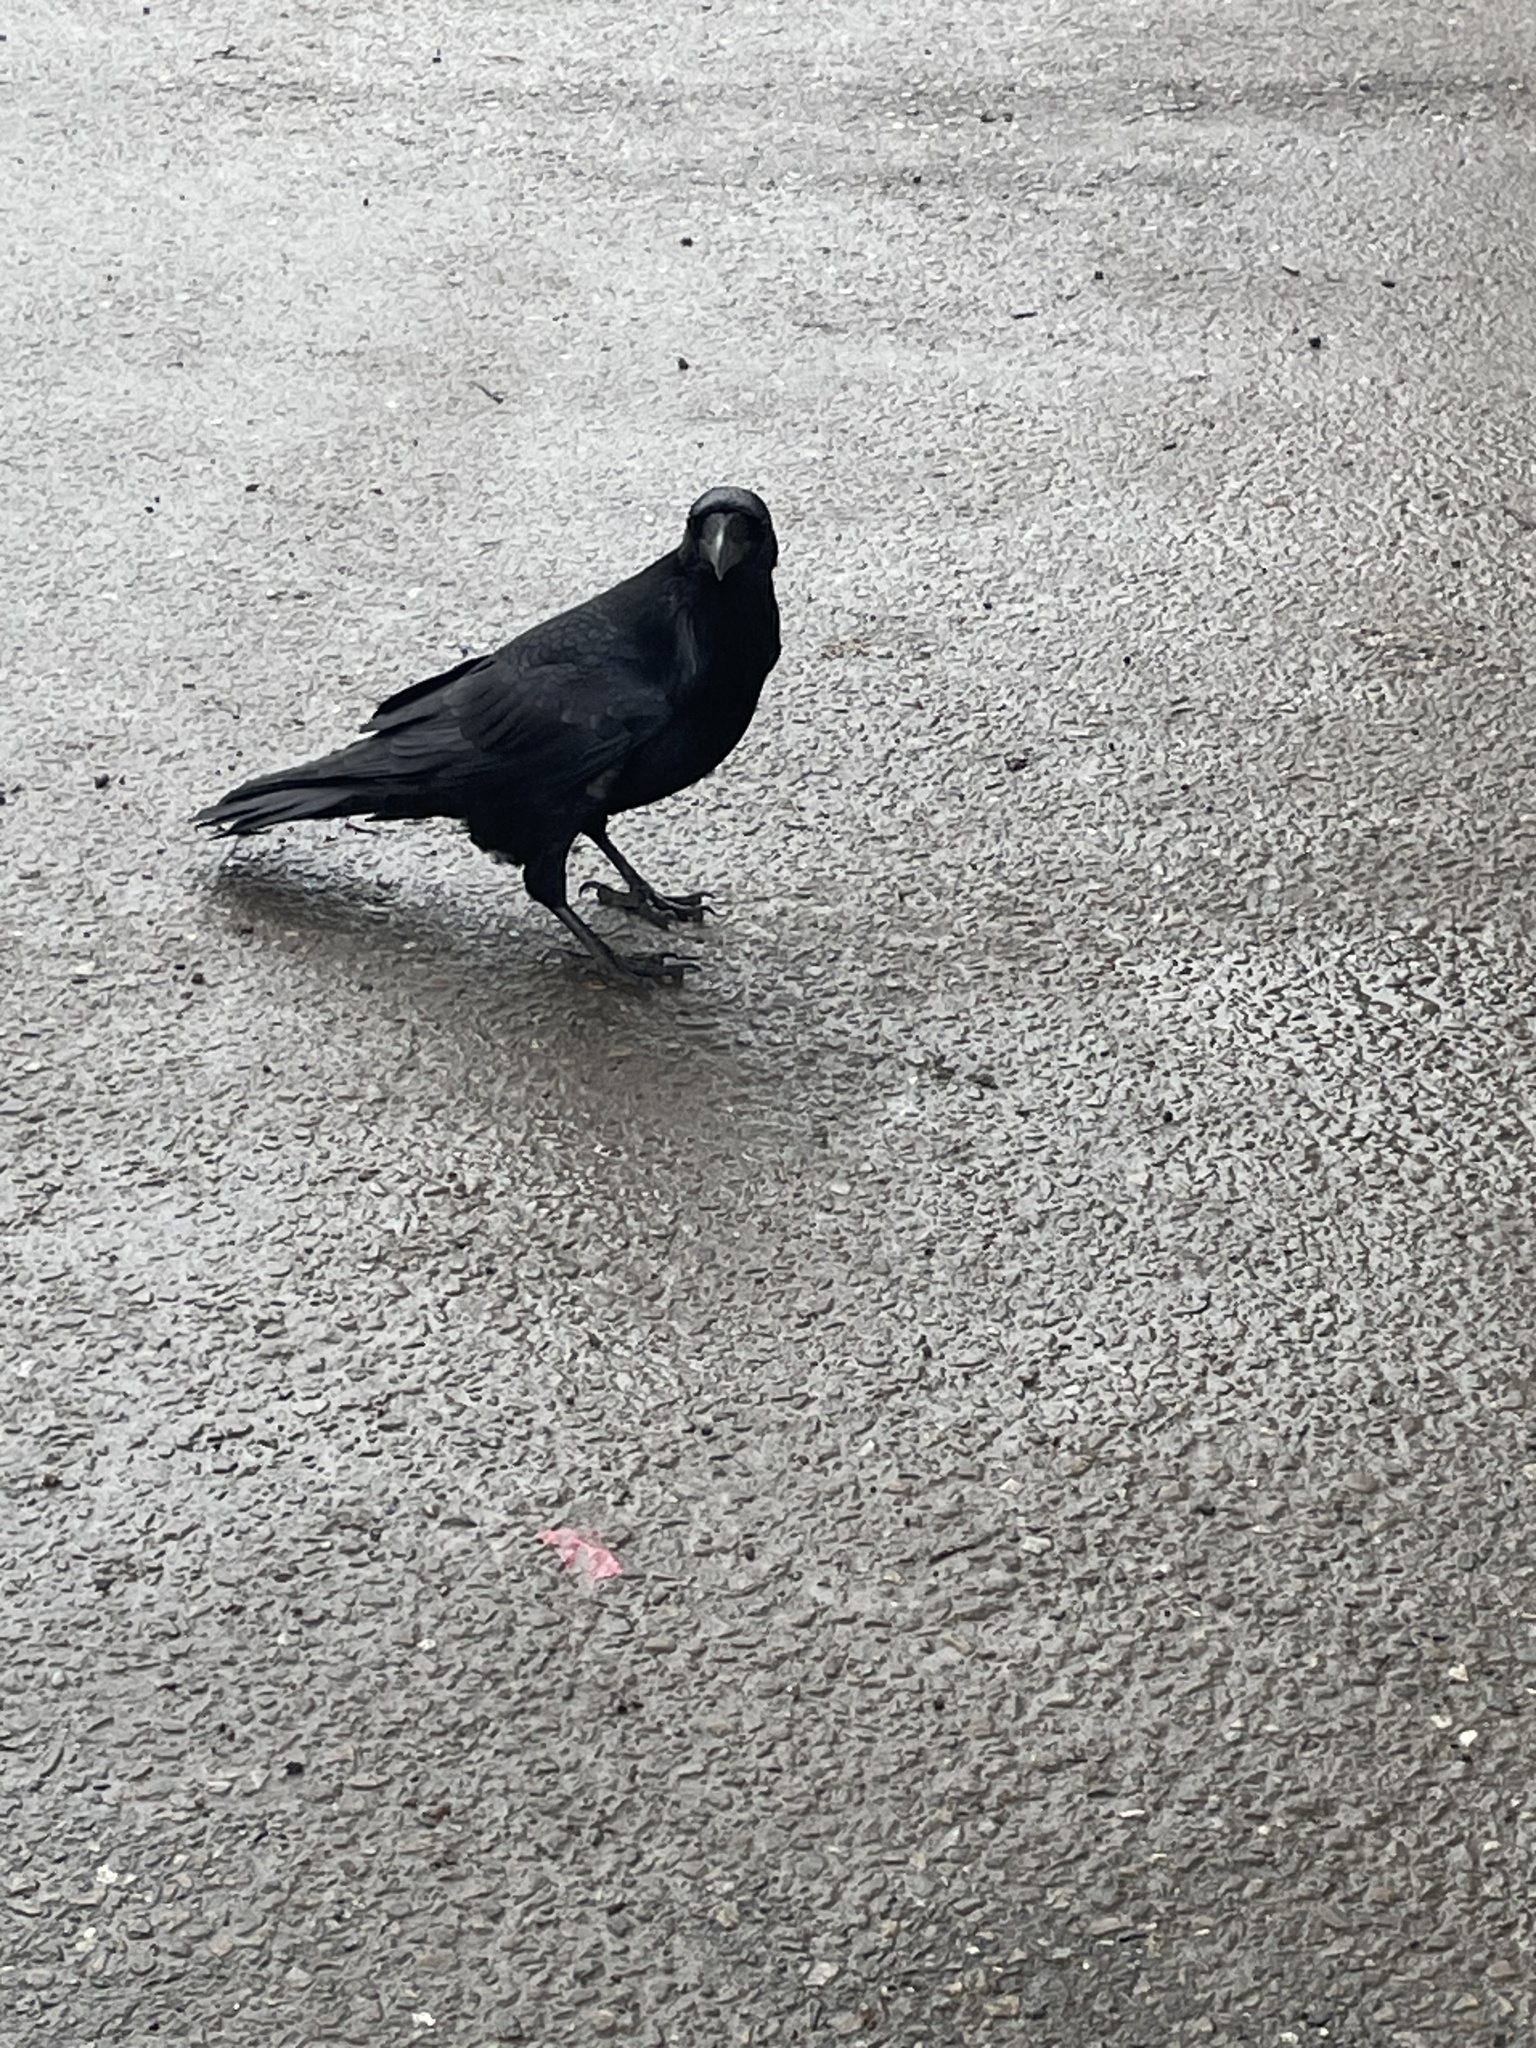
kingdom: Animalia
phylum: Chordata
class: Aves
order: Passeriformes
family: Corvidae
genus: Corvus
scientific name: Corvus brachyrhynchos
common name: American crow
